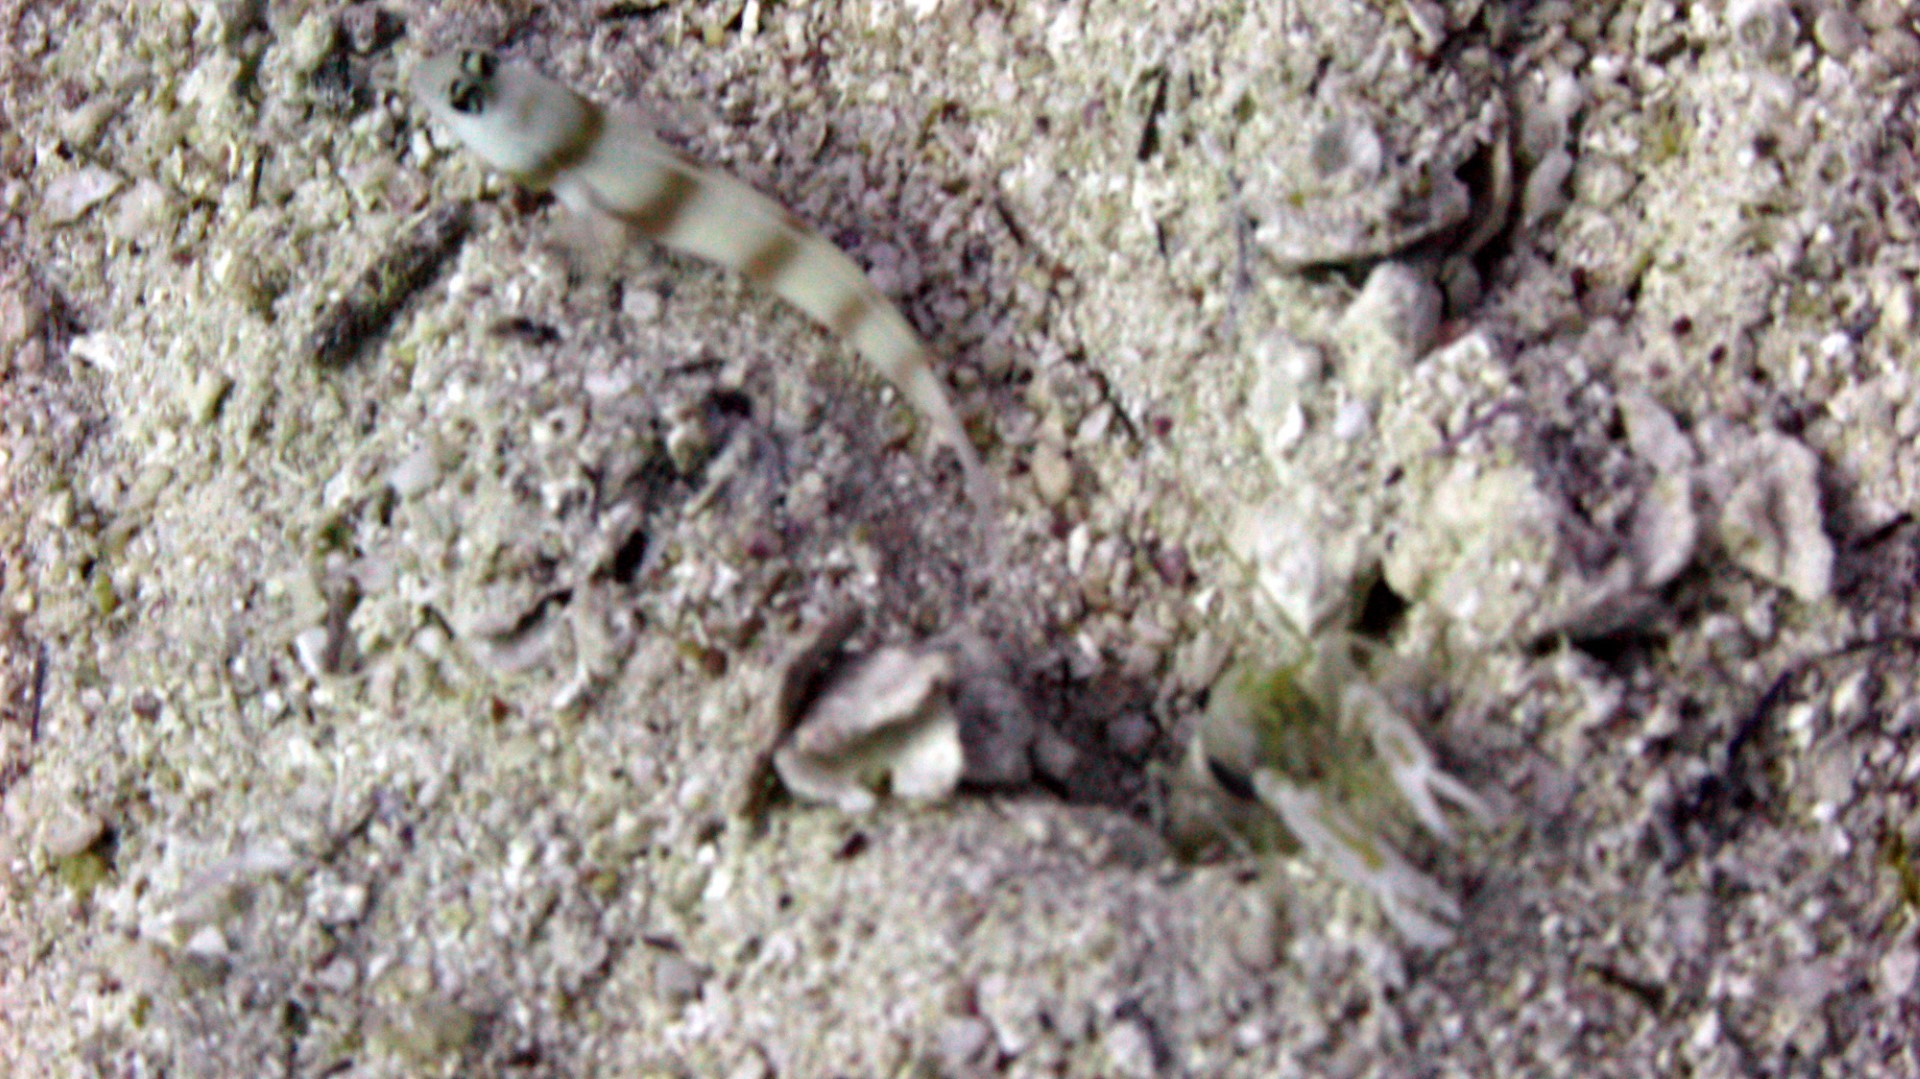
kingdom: Animalia
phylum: Chordata
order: Perciformes
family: Gobiidae
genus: Amblyeleotris
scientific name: Amblyeleotris steinitzi
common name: Steinitz' prawn-goby
